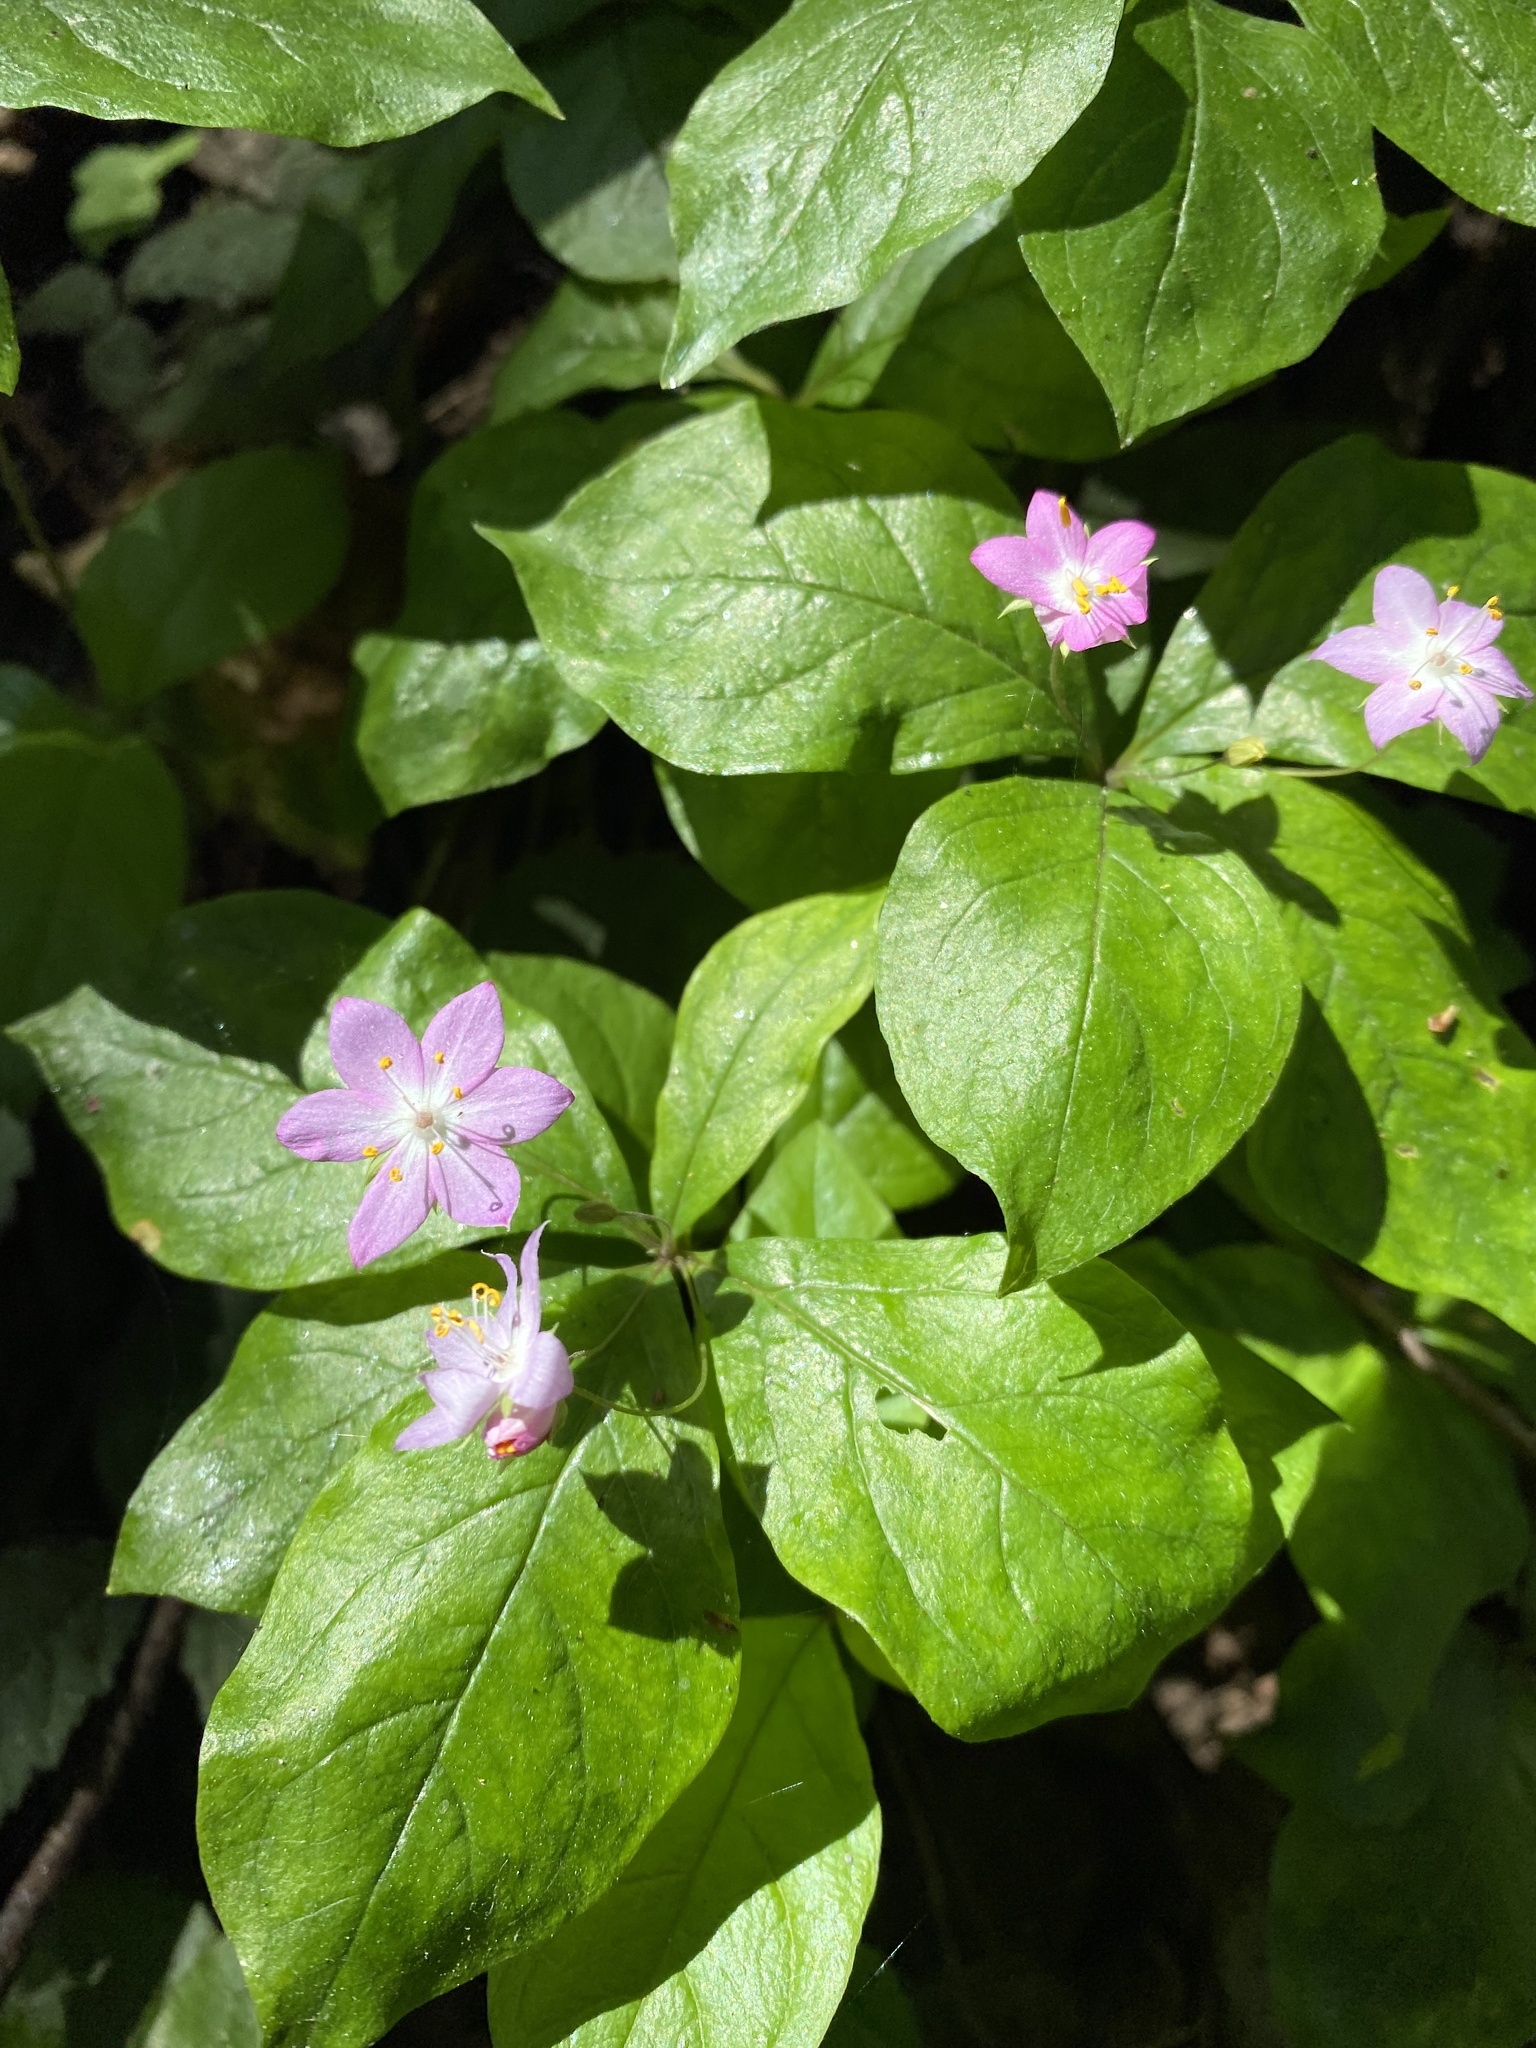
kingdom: Plantae
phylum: Tracheophyta
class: Magnoliopsida
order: Ericales
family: Primulaceae
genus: Lysimachia
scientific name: Lysimachia latifolia
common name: Pacific starflower
